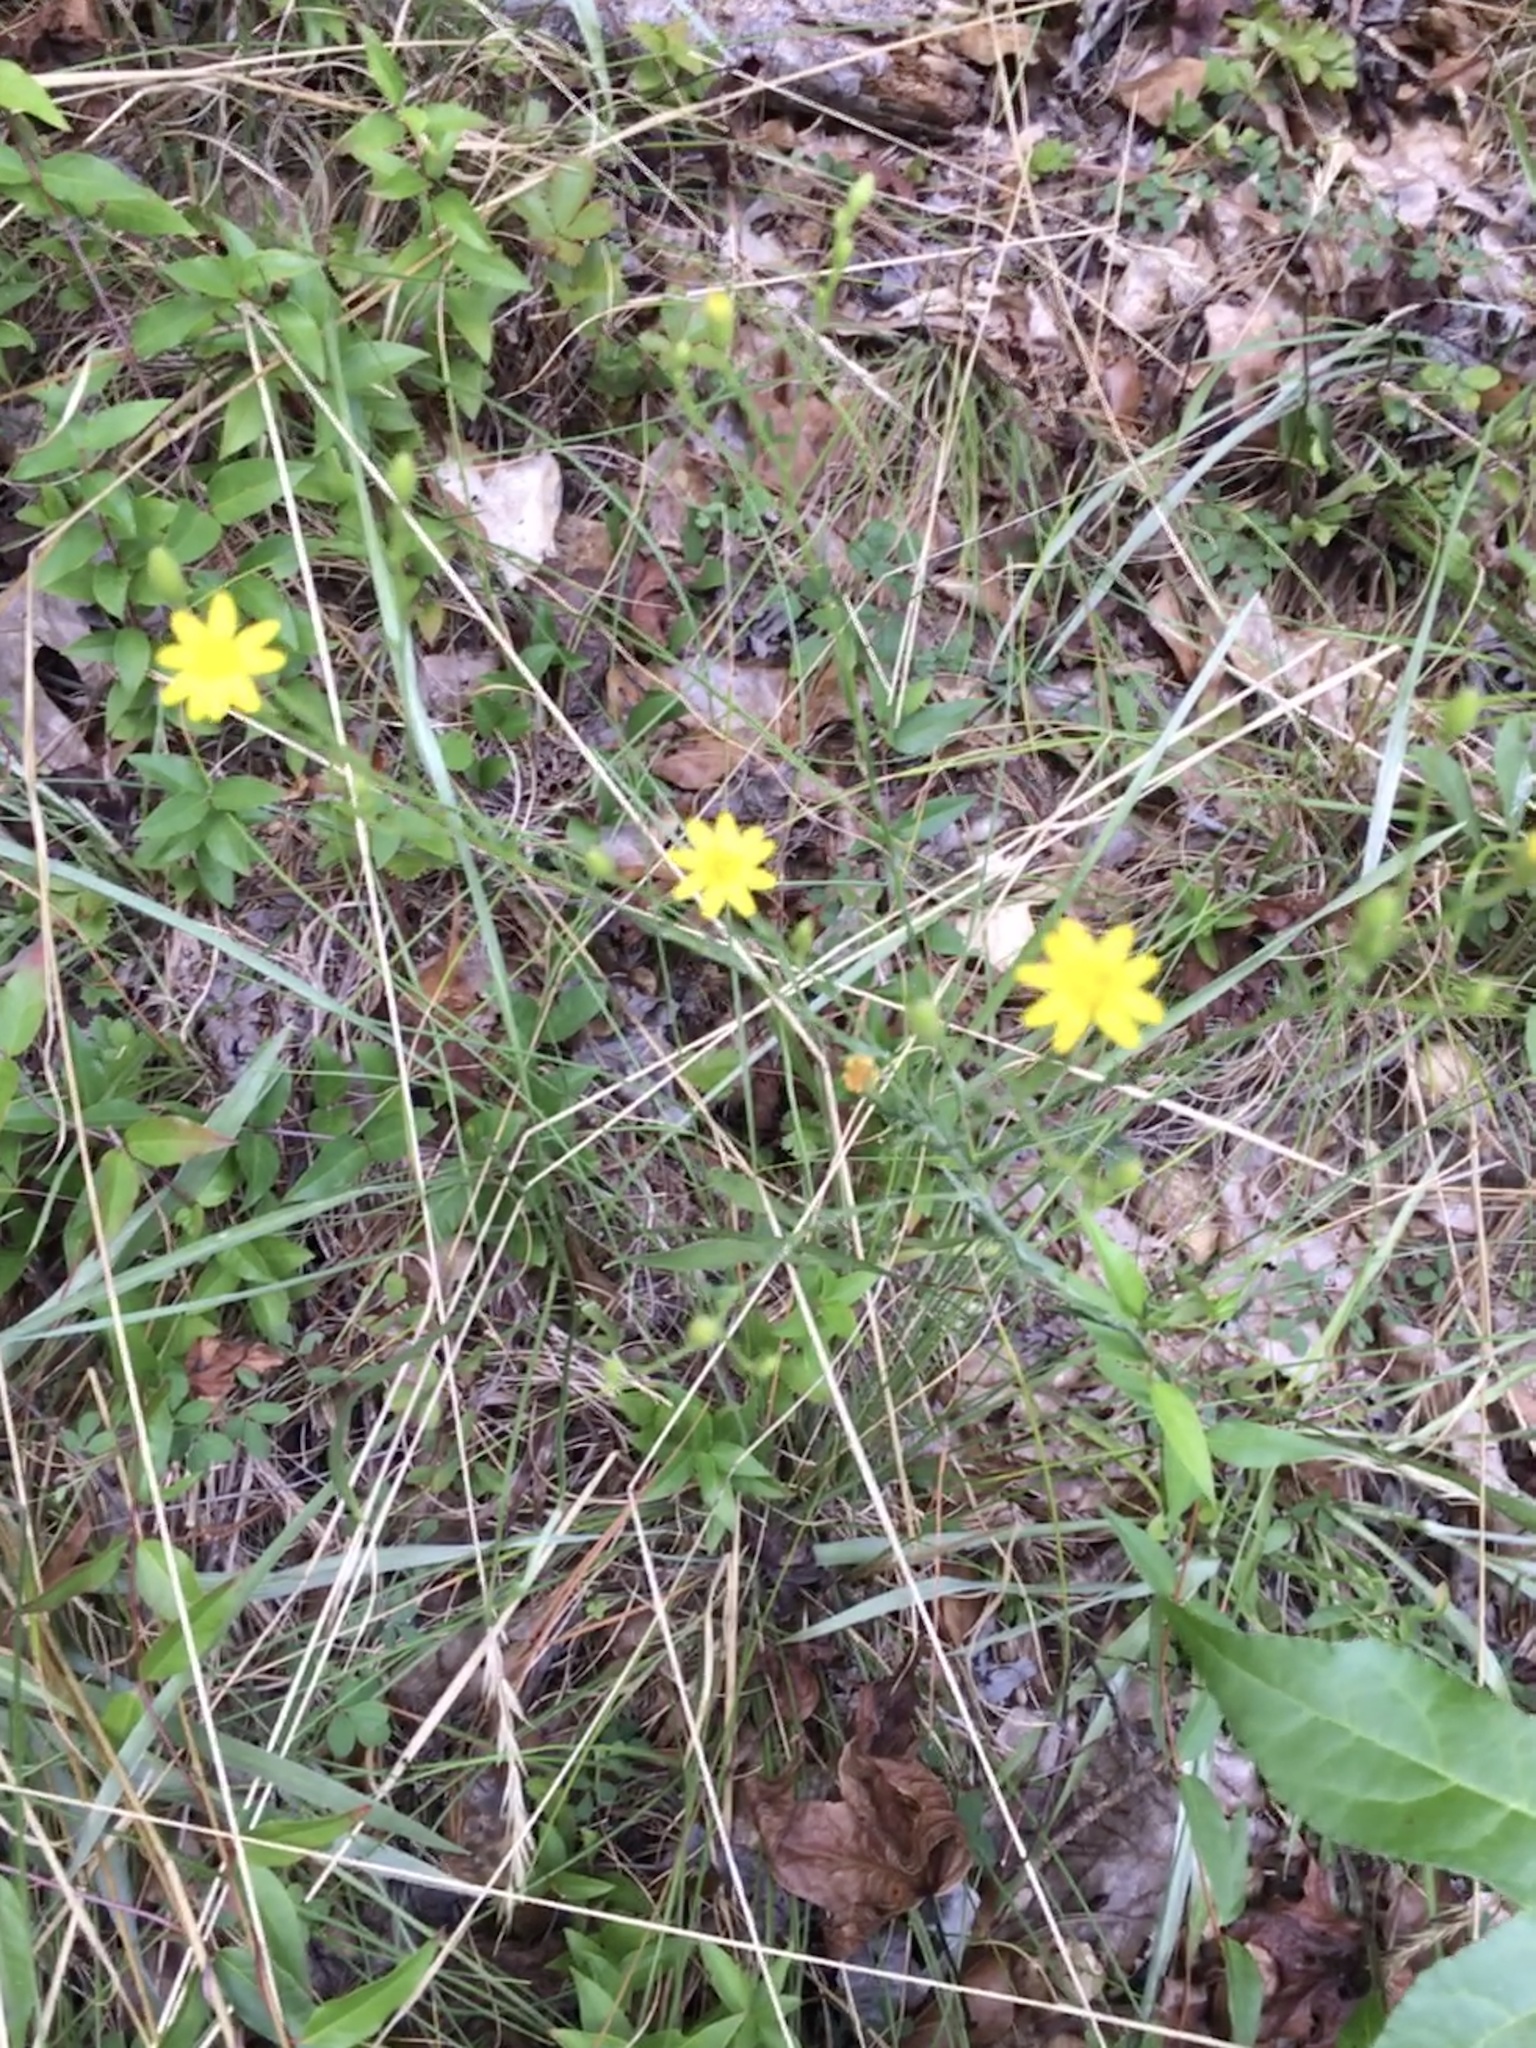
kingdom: Plantae
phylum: Tracheophyta
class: Magnoliopsida
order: Asterales
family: Asteraceae
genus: Pityopsis
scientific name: Pityopsis aspera
